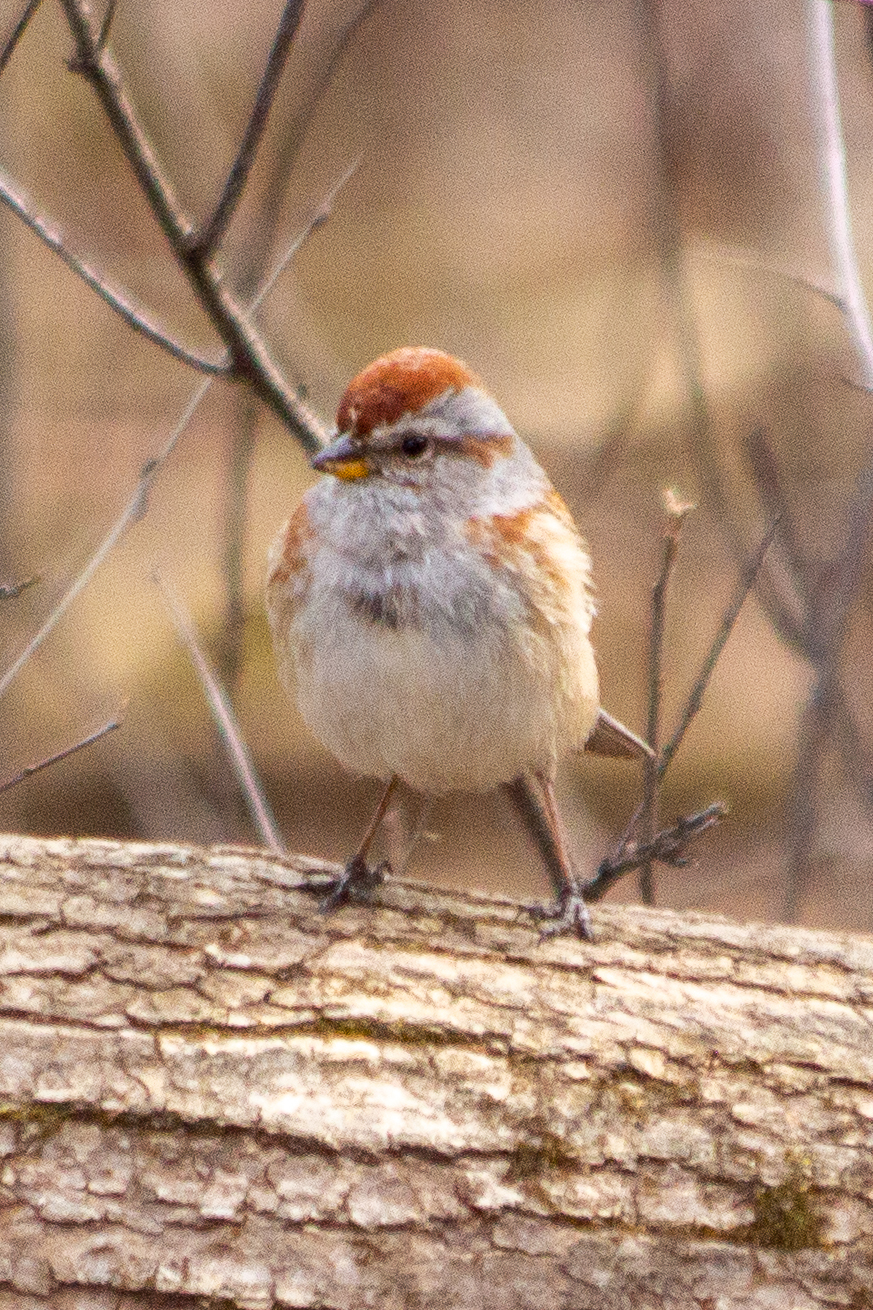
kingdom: Animalia
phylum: Chordata
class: Aves
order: Passeriformes
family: Passerellidae
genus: Spizelloides
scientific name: Spizelloides arborea
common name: American tree sparrow
